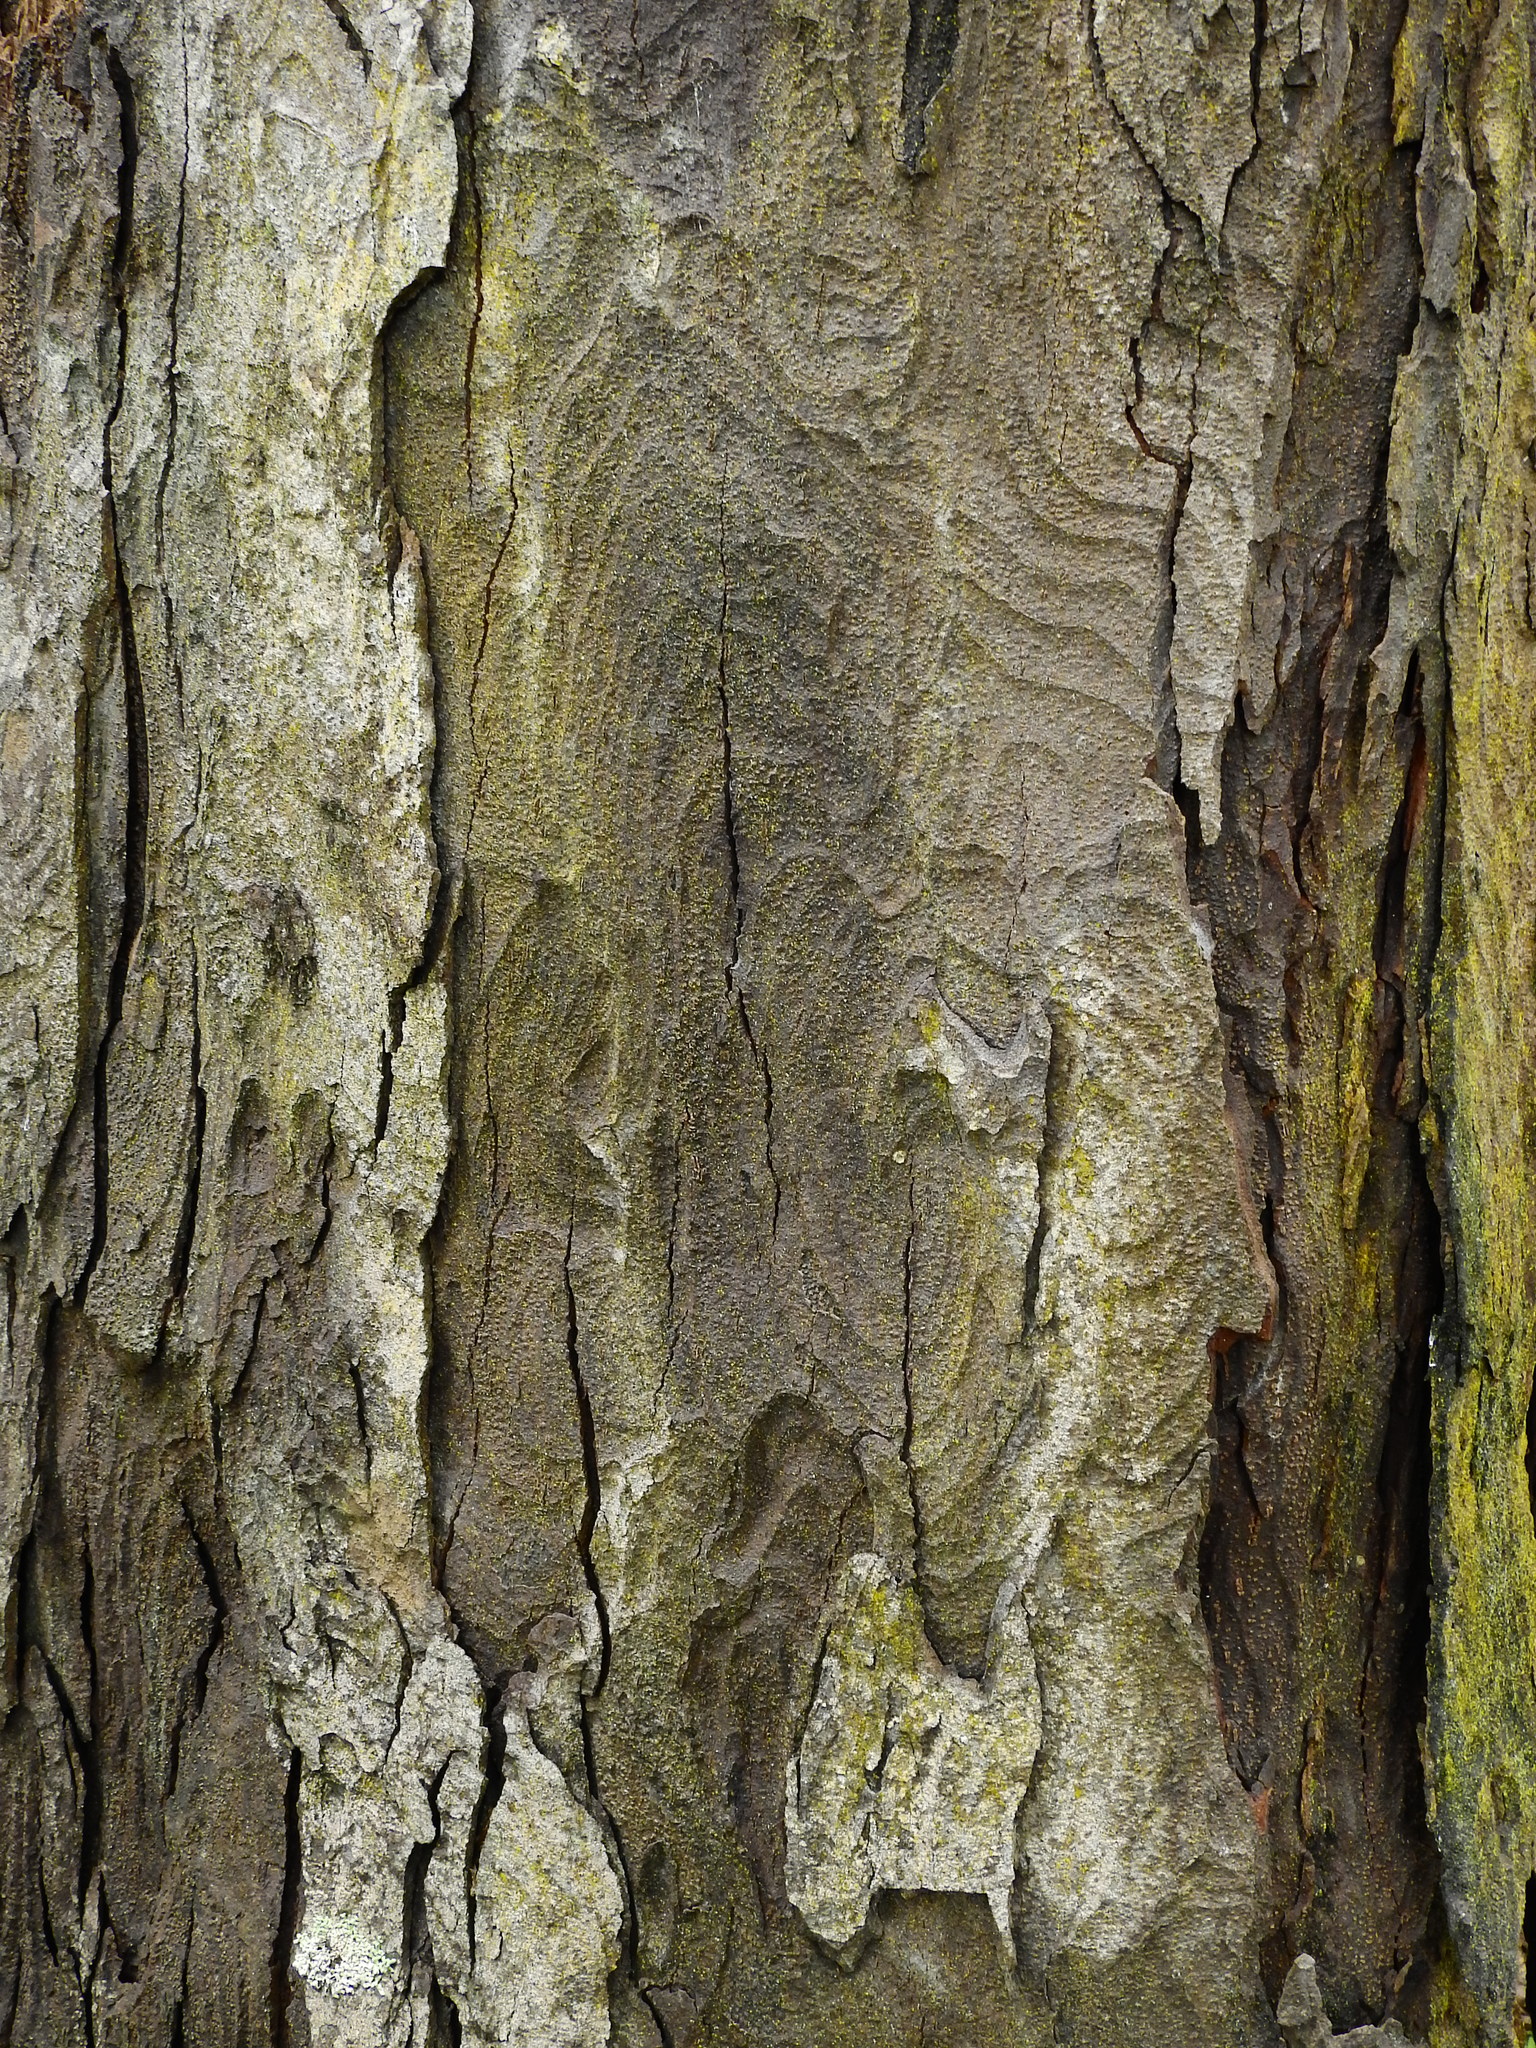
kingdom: Plantae
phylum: Tracheophyta
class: Pinopsida
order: Pinales
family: Podocarpaceae
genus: Dacrydium
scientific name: Dacrydium cupressinum
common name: Red pine
